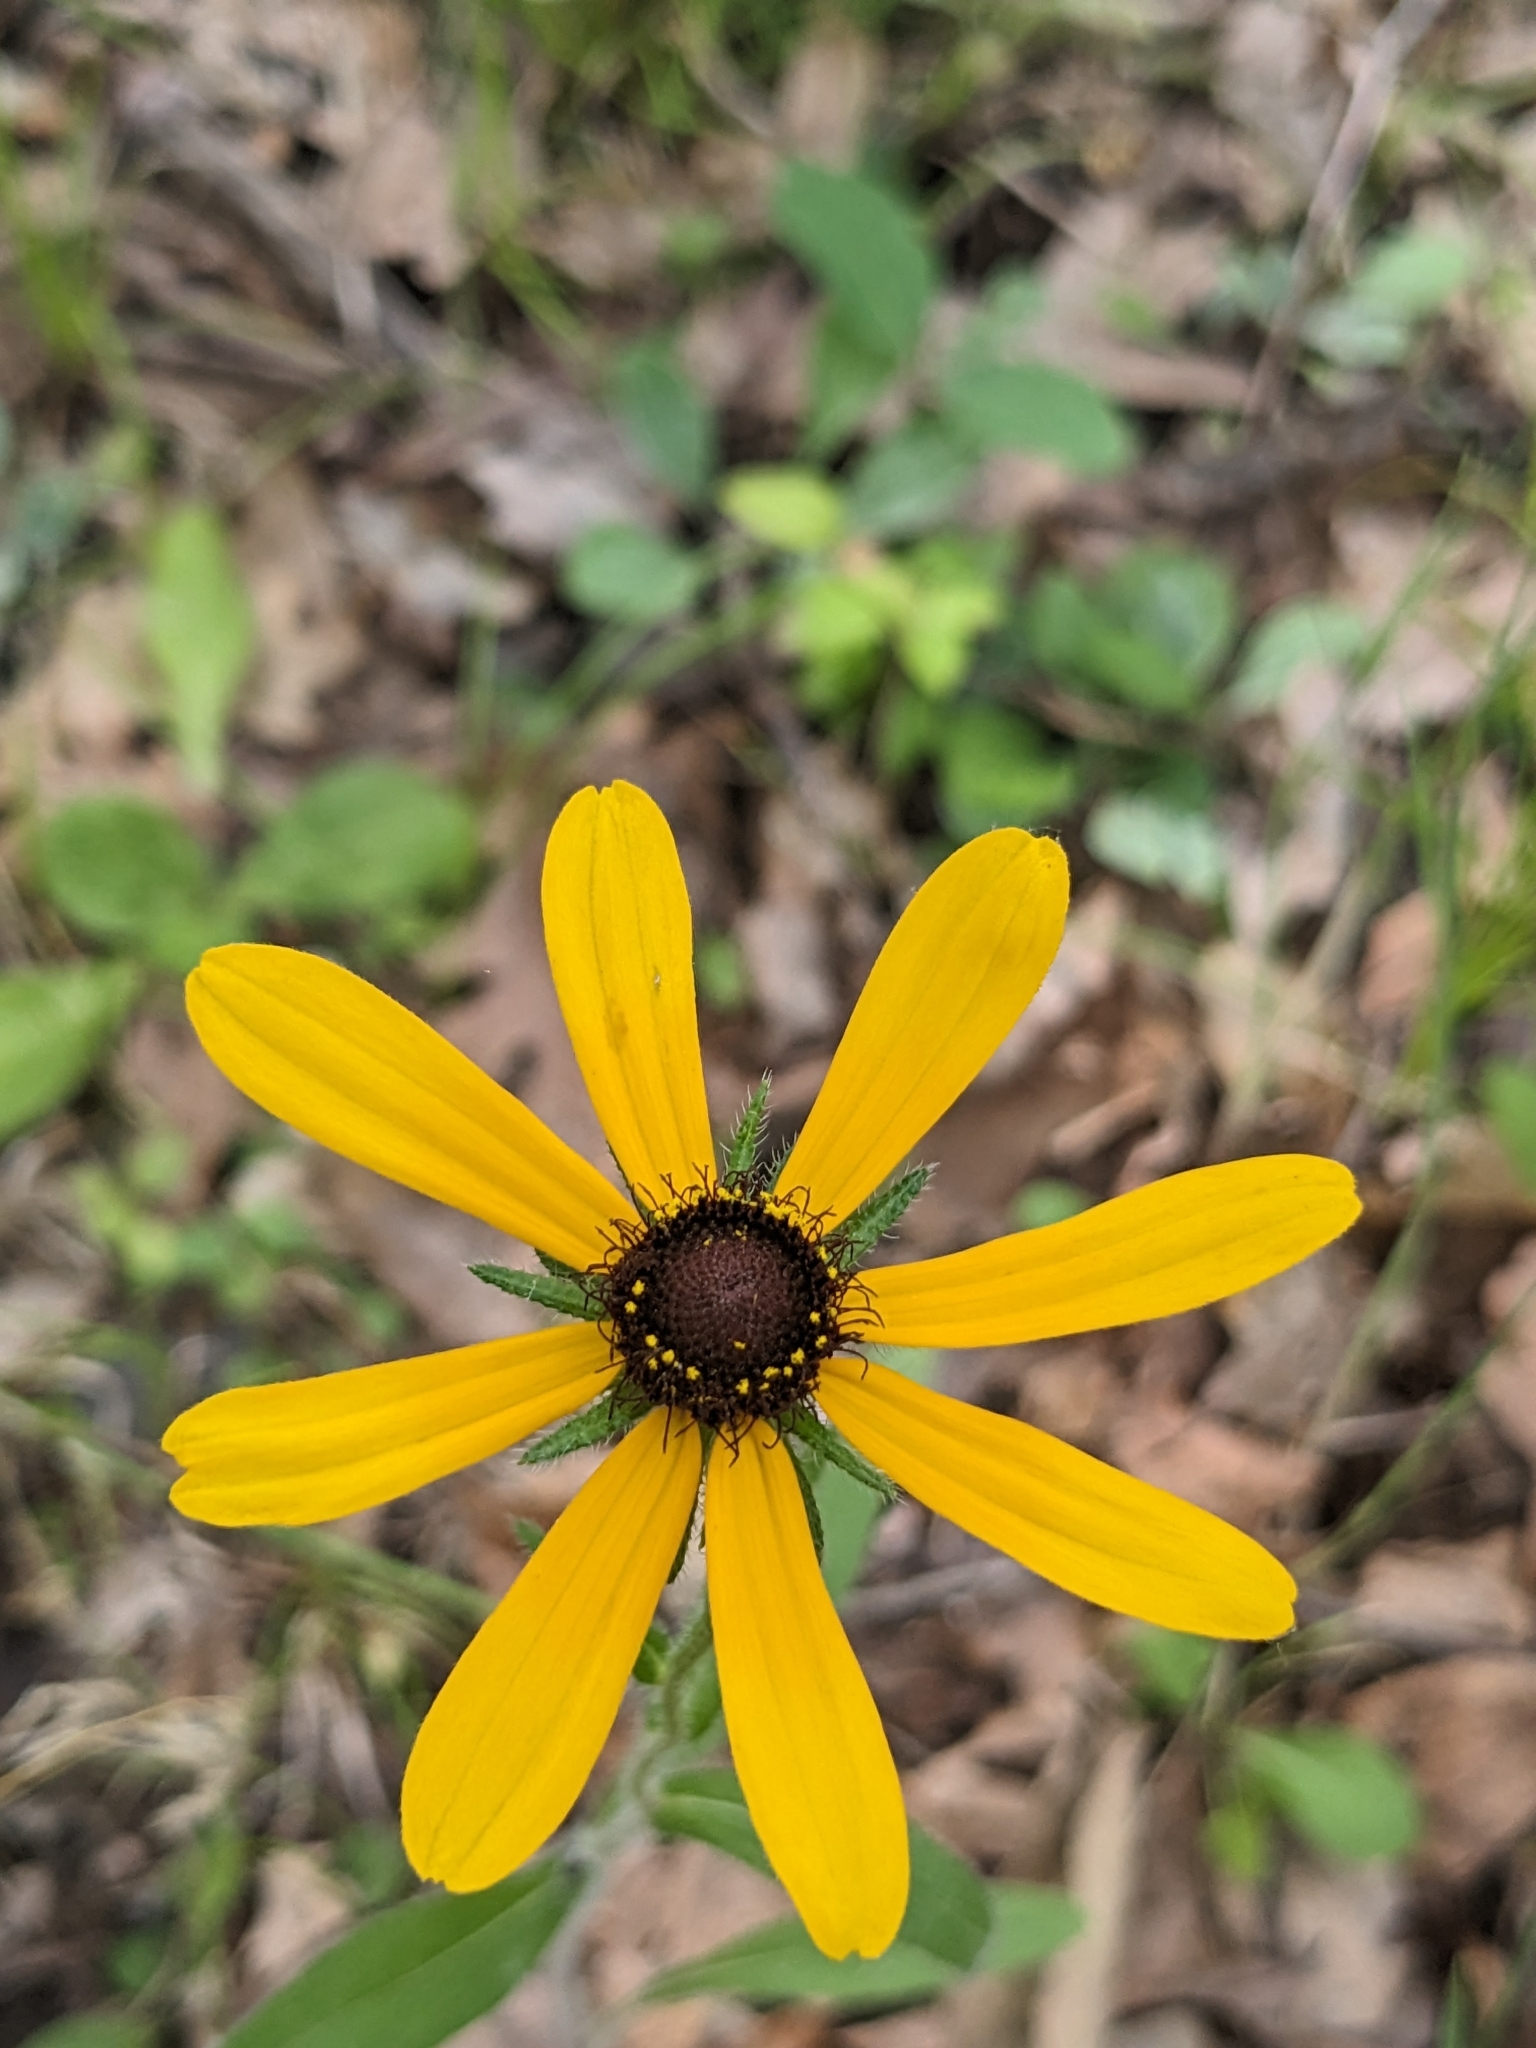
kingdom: Plantae
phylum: Tracheophyta
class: Magnoliopsida
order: Asterales
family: Asteraceae
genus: Rudbeckia
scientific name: Rudbeckia hirta
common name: Black-eyed-susan
